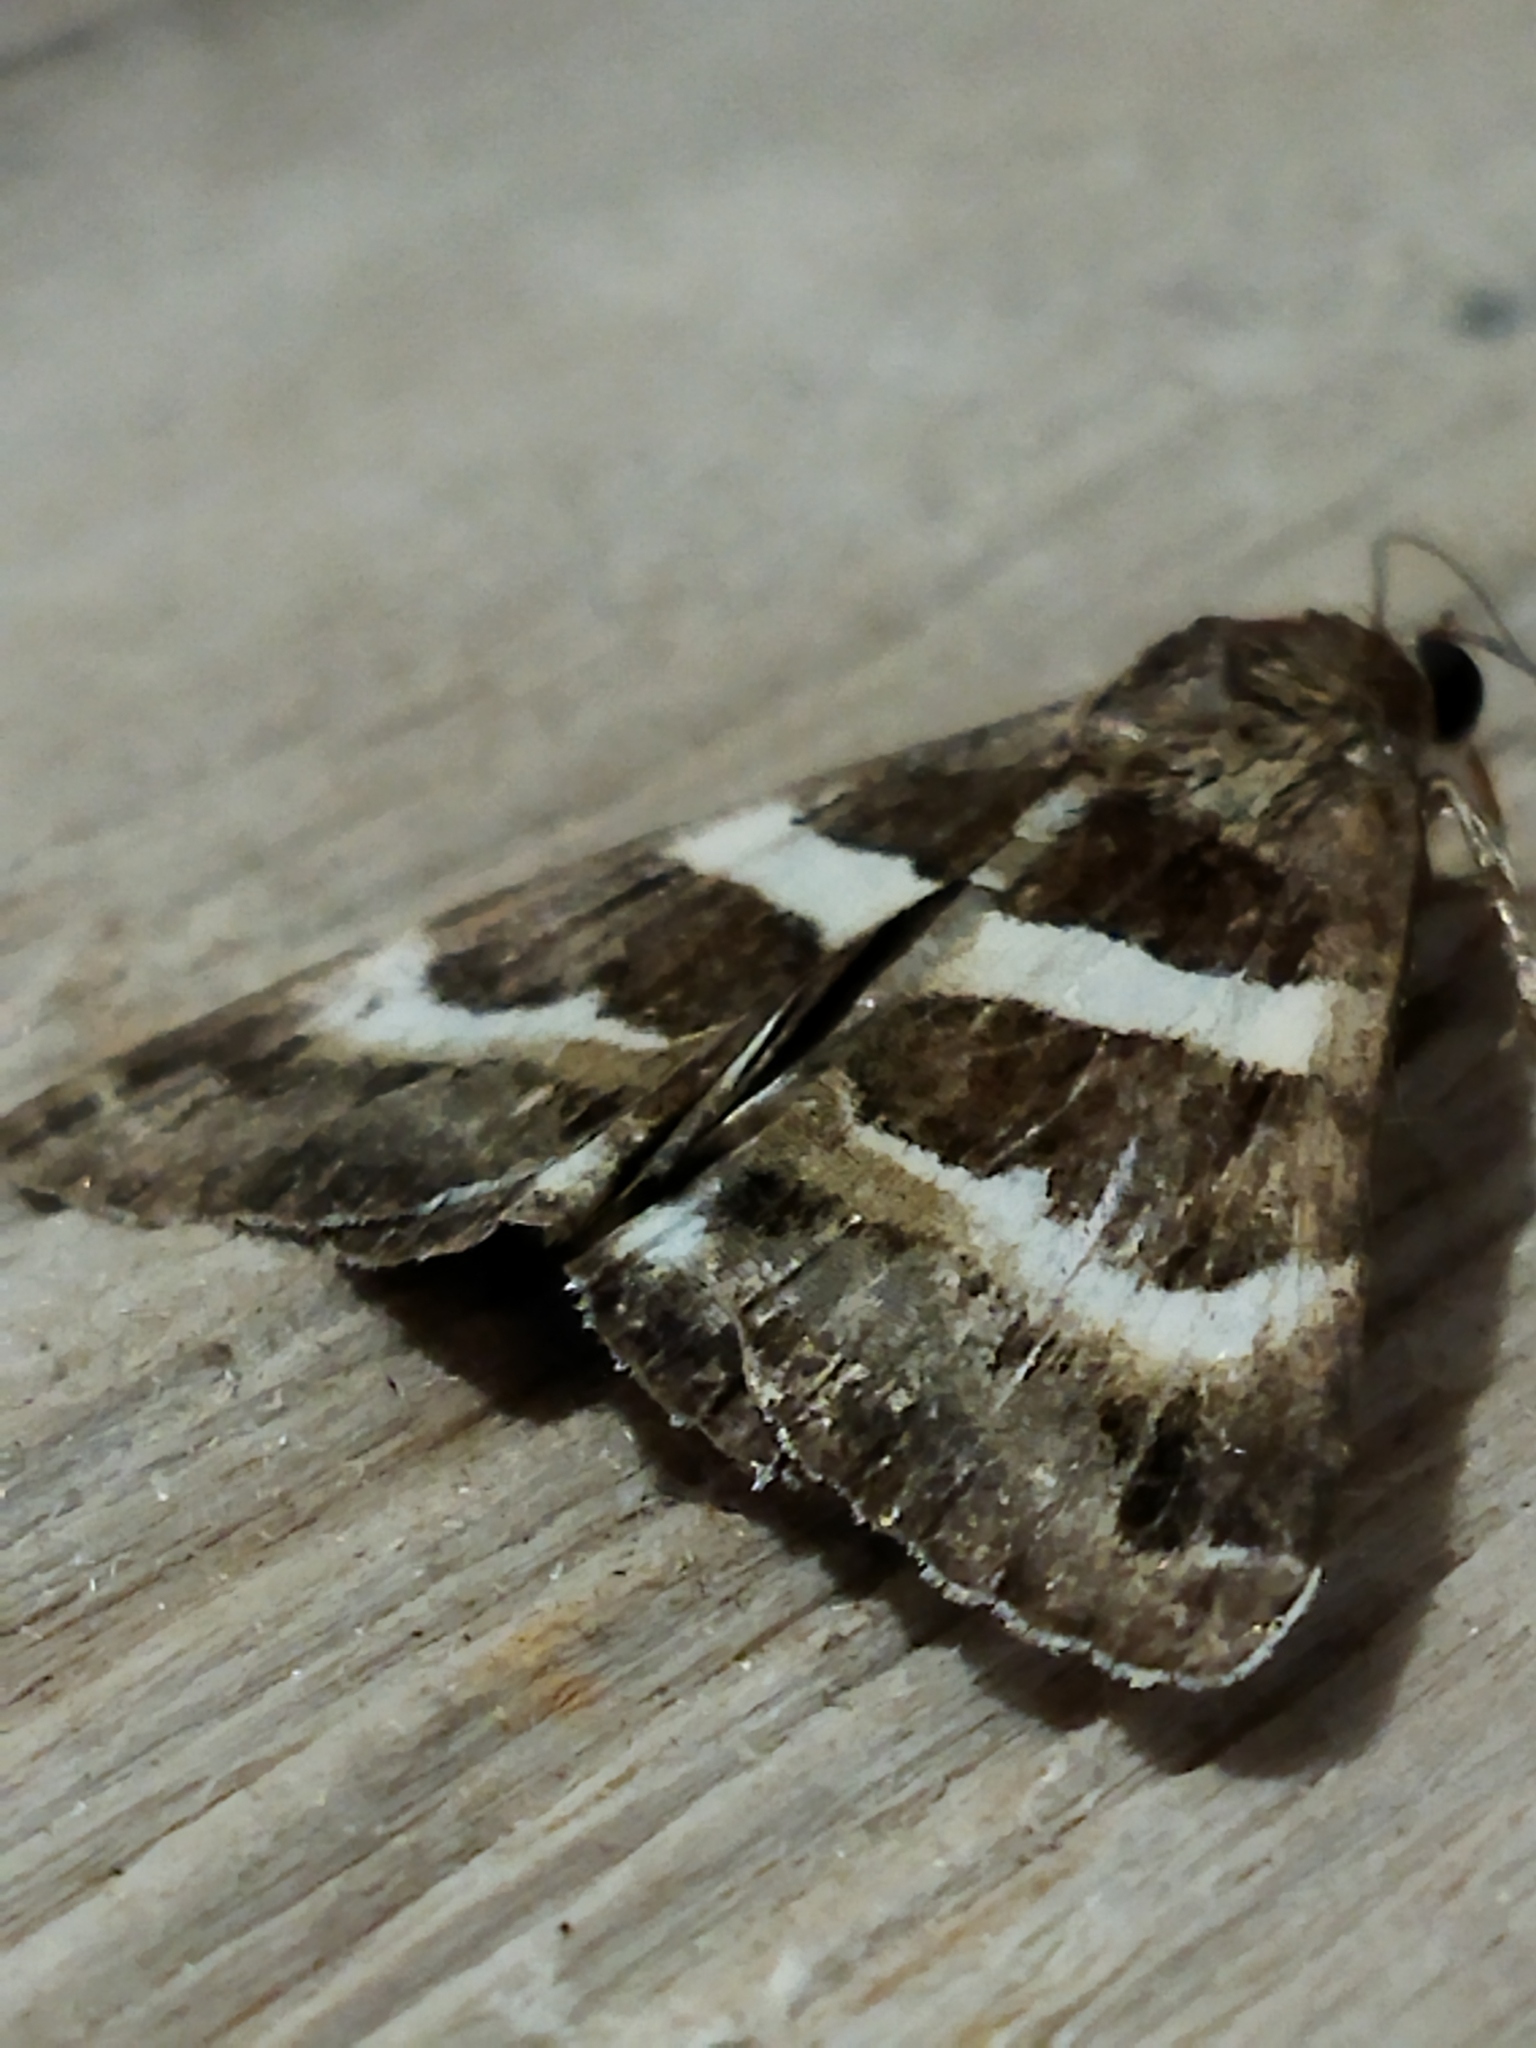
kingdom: Animalia
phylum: Arthropoda
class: Insecta
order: Lepidoptera
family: Erebidae
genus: Grammodes
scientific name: Grammodes stolida
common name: Geometrician
